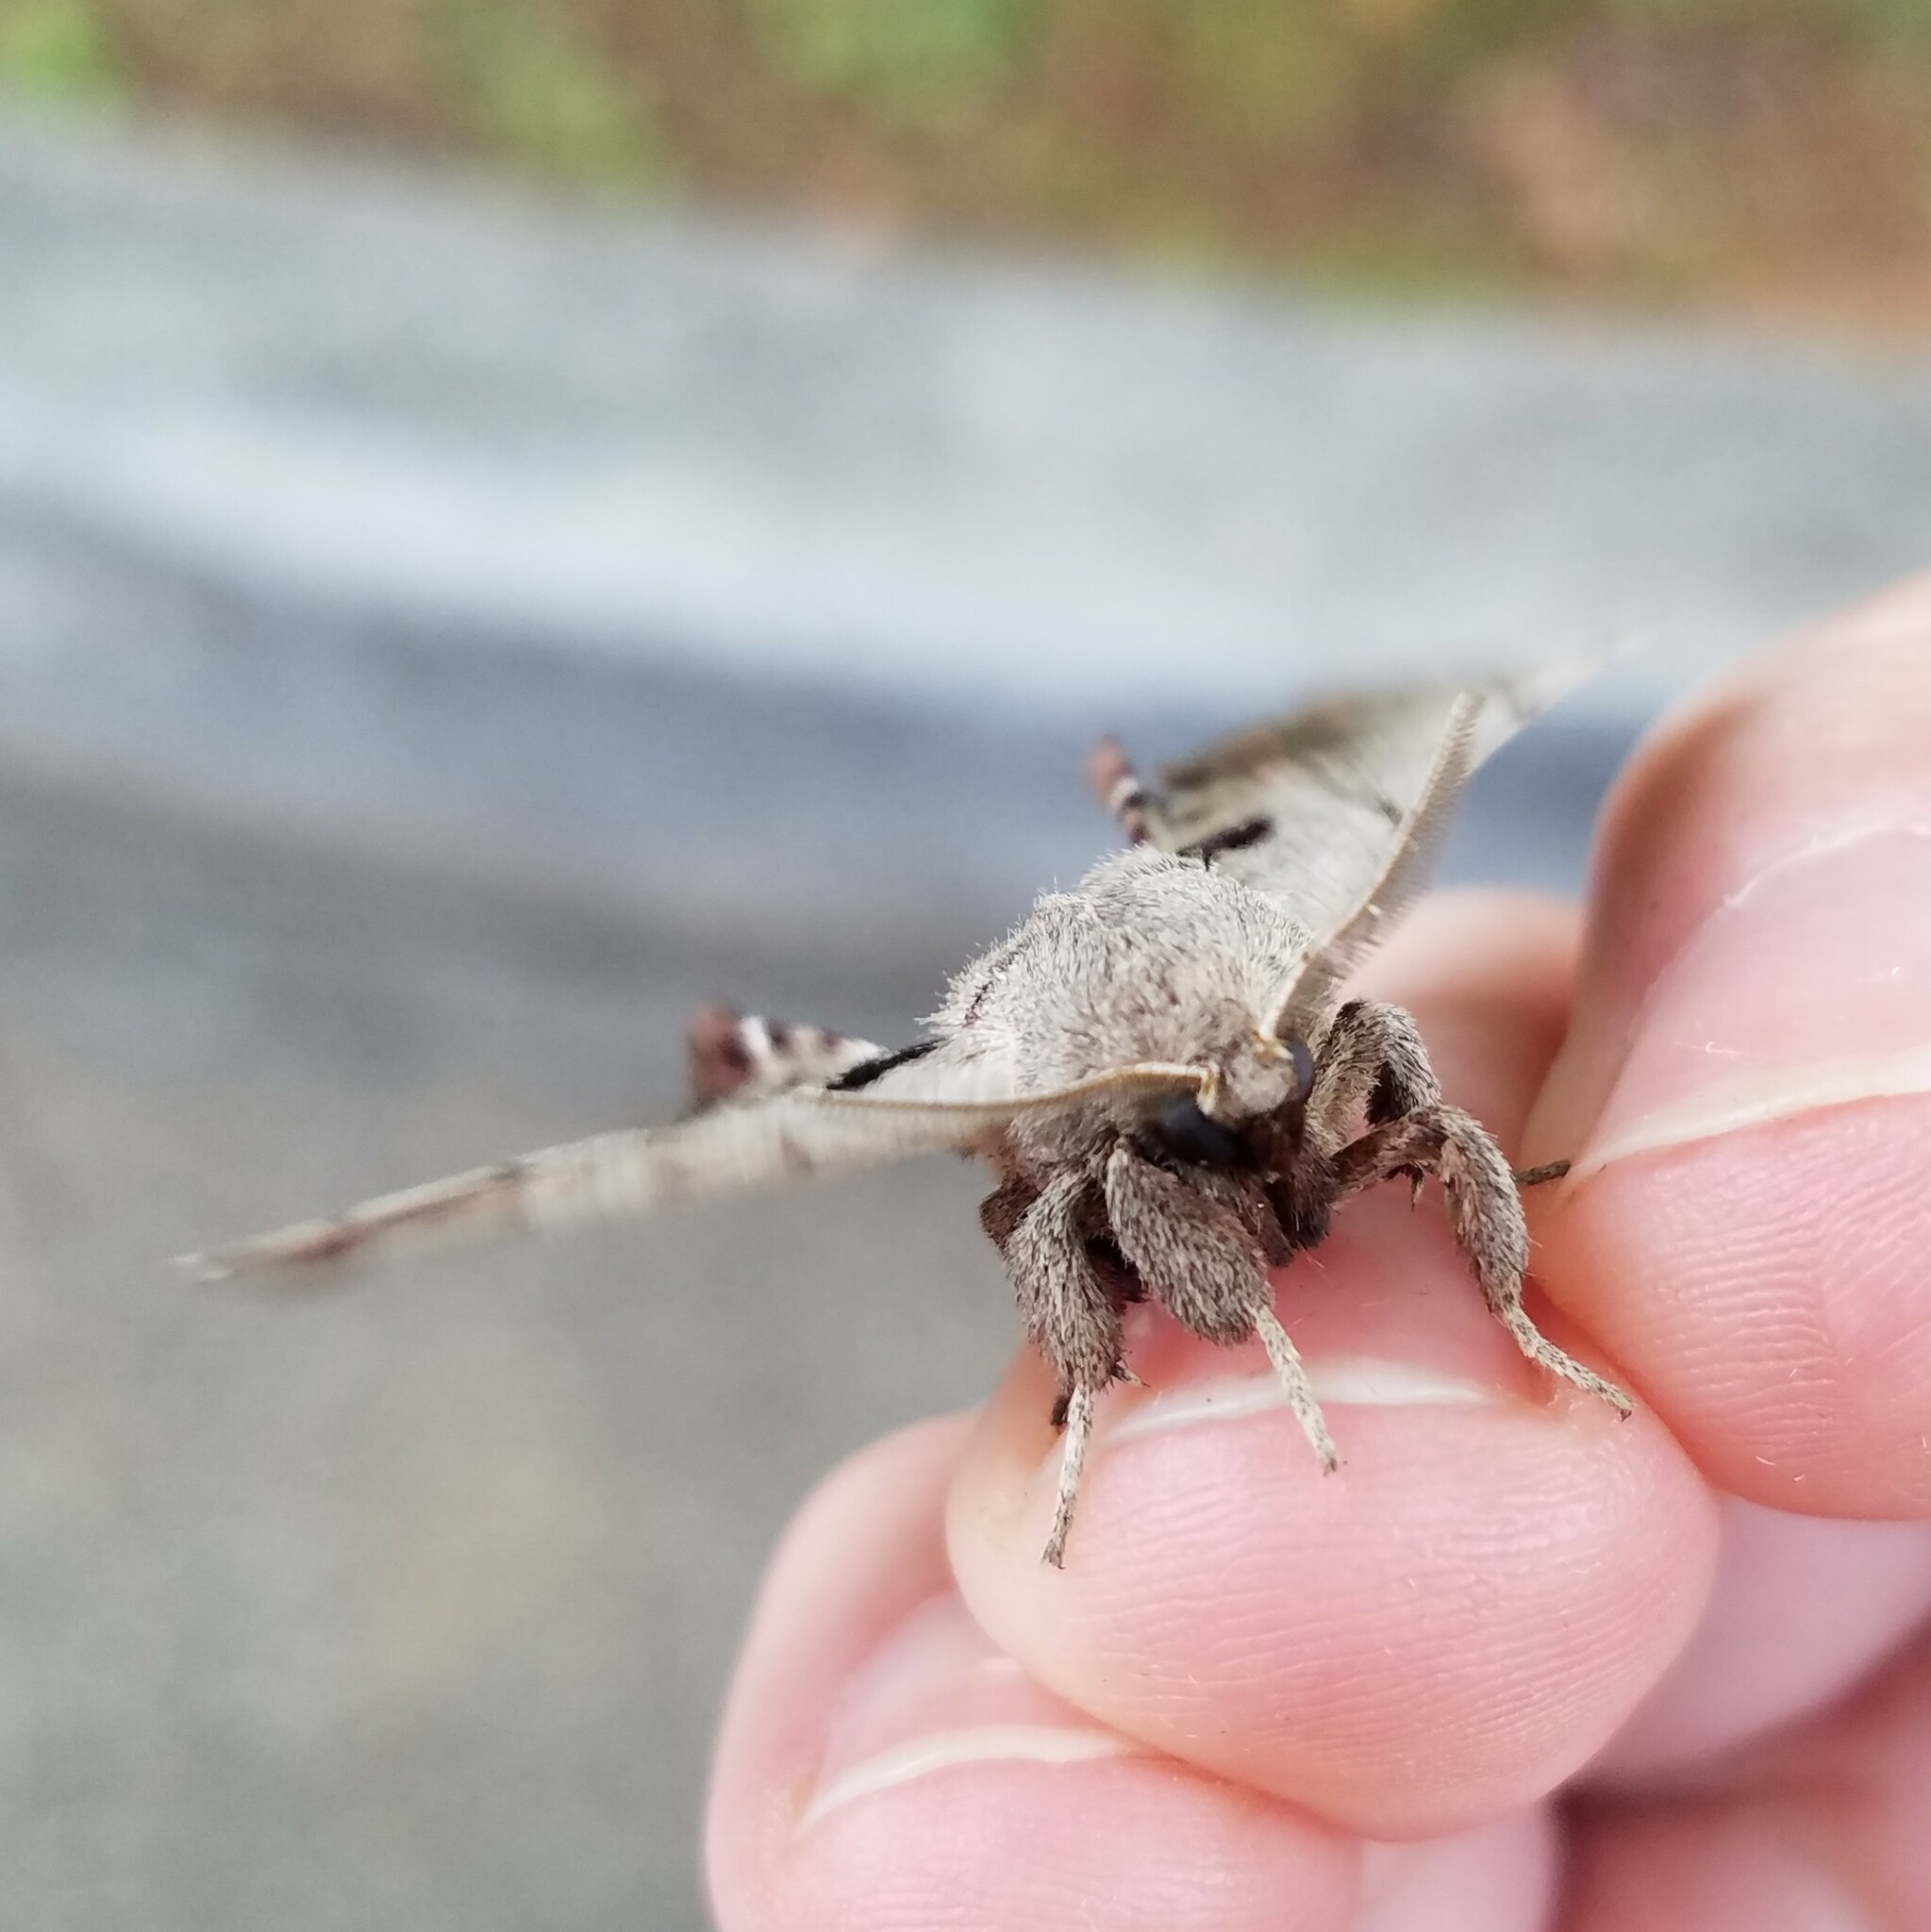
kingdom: Animalia
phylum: Arthropoda
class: Insecta
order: Lepidoptera
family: Apatelodidae
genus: Hygrochroa
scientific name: Hygrochroa Apatelodes torrefacta
